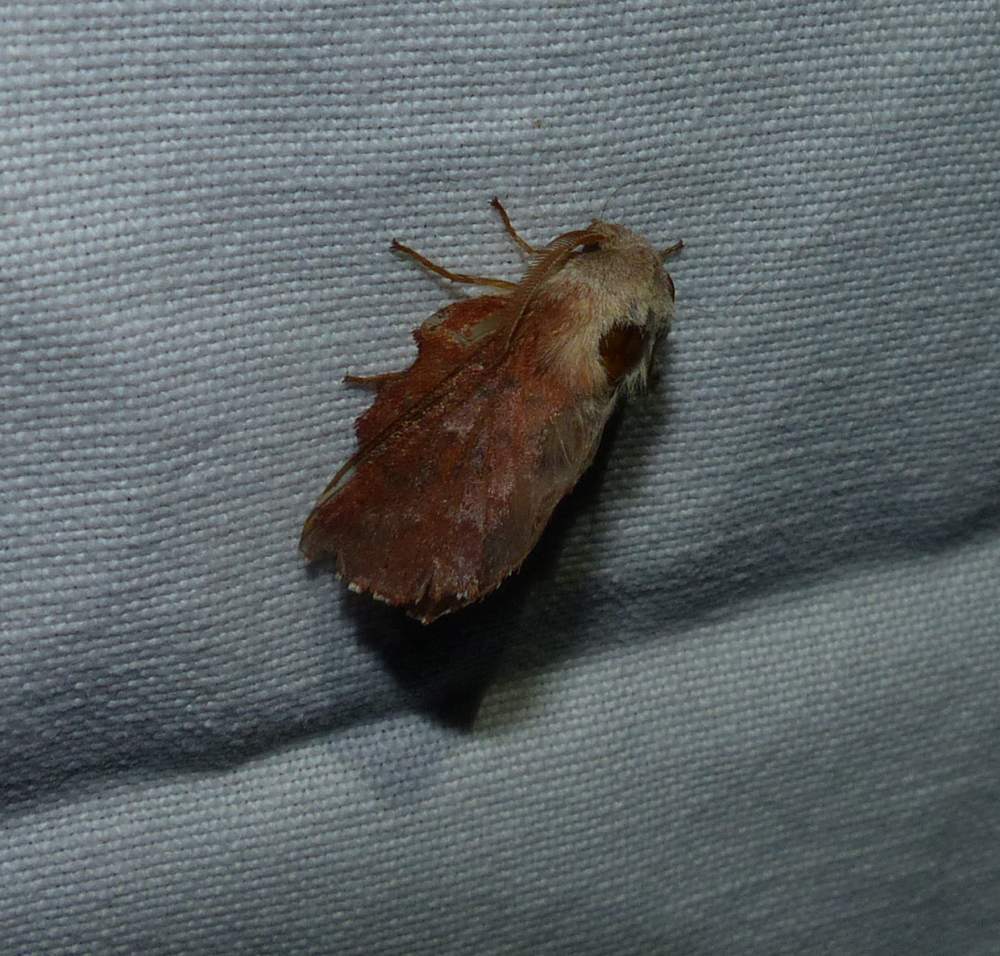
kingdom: Animalia
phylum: Arthropoda
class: Insecta
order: Lepidoptera
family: Lasiocampidae
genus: Phyllodesma
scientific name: Phyllodesma americana
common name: American lappet moth
